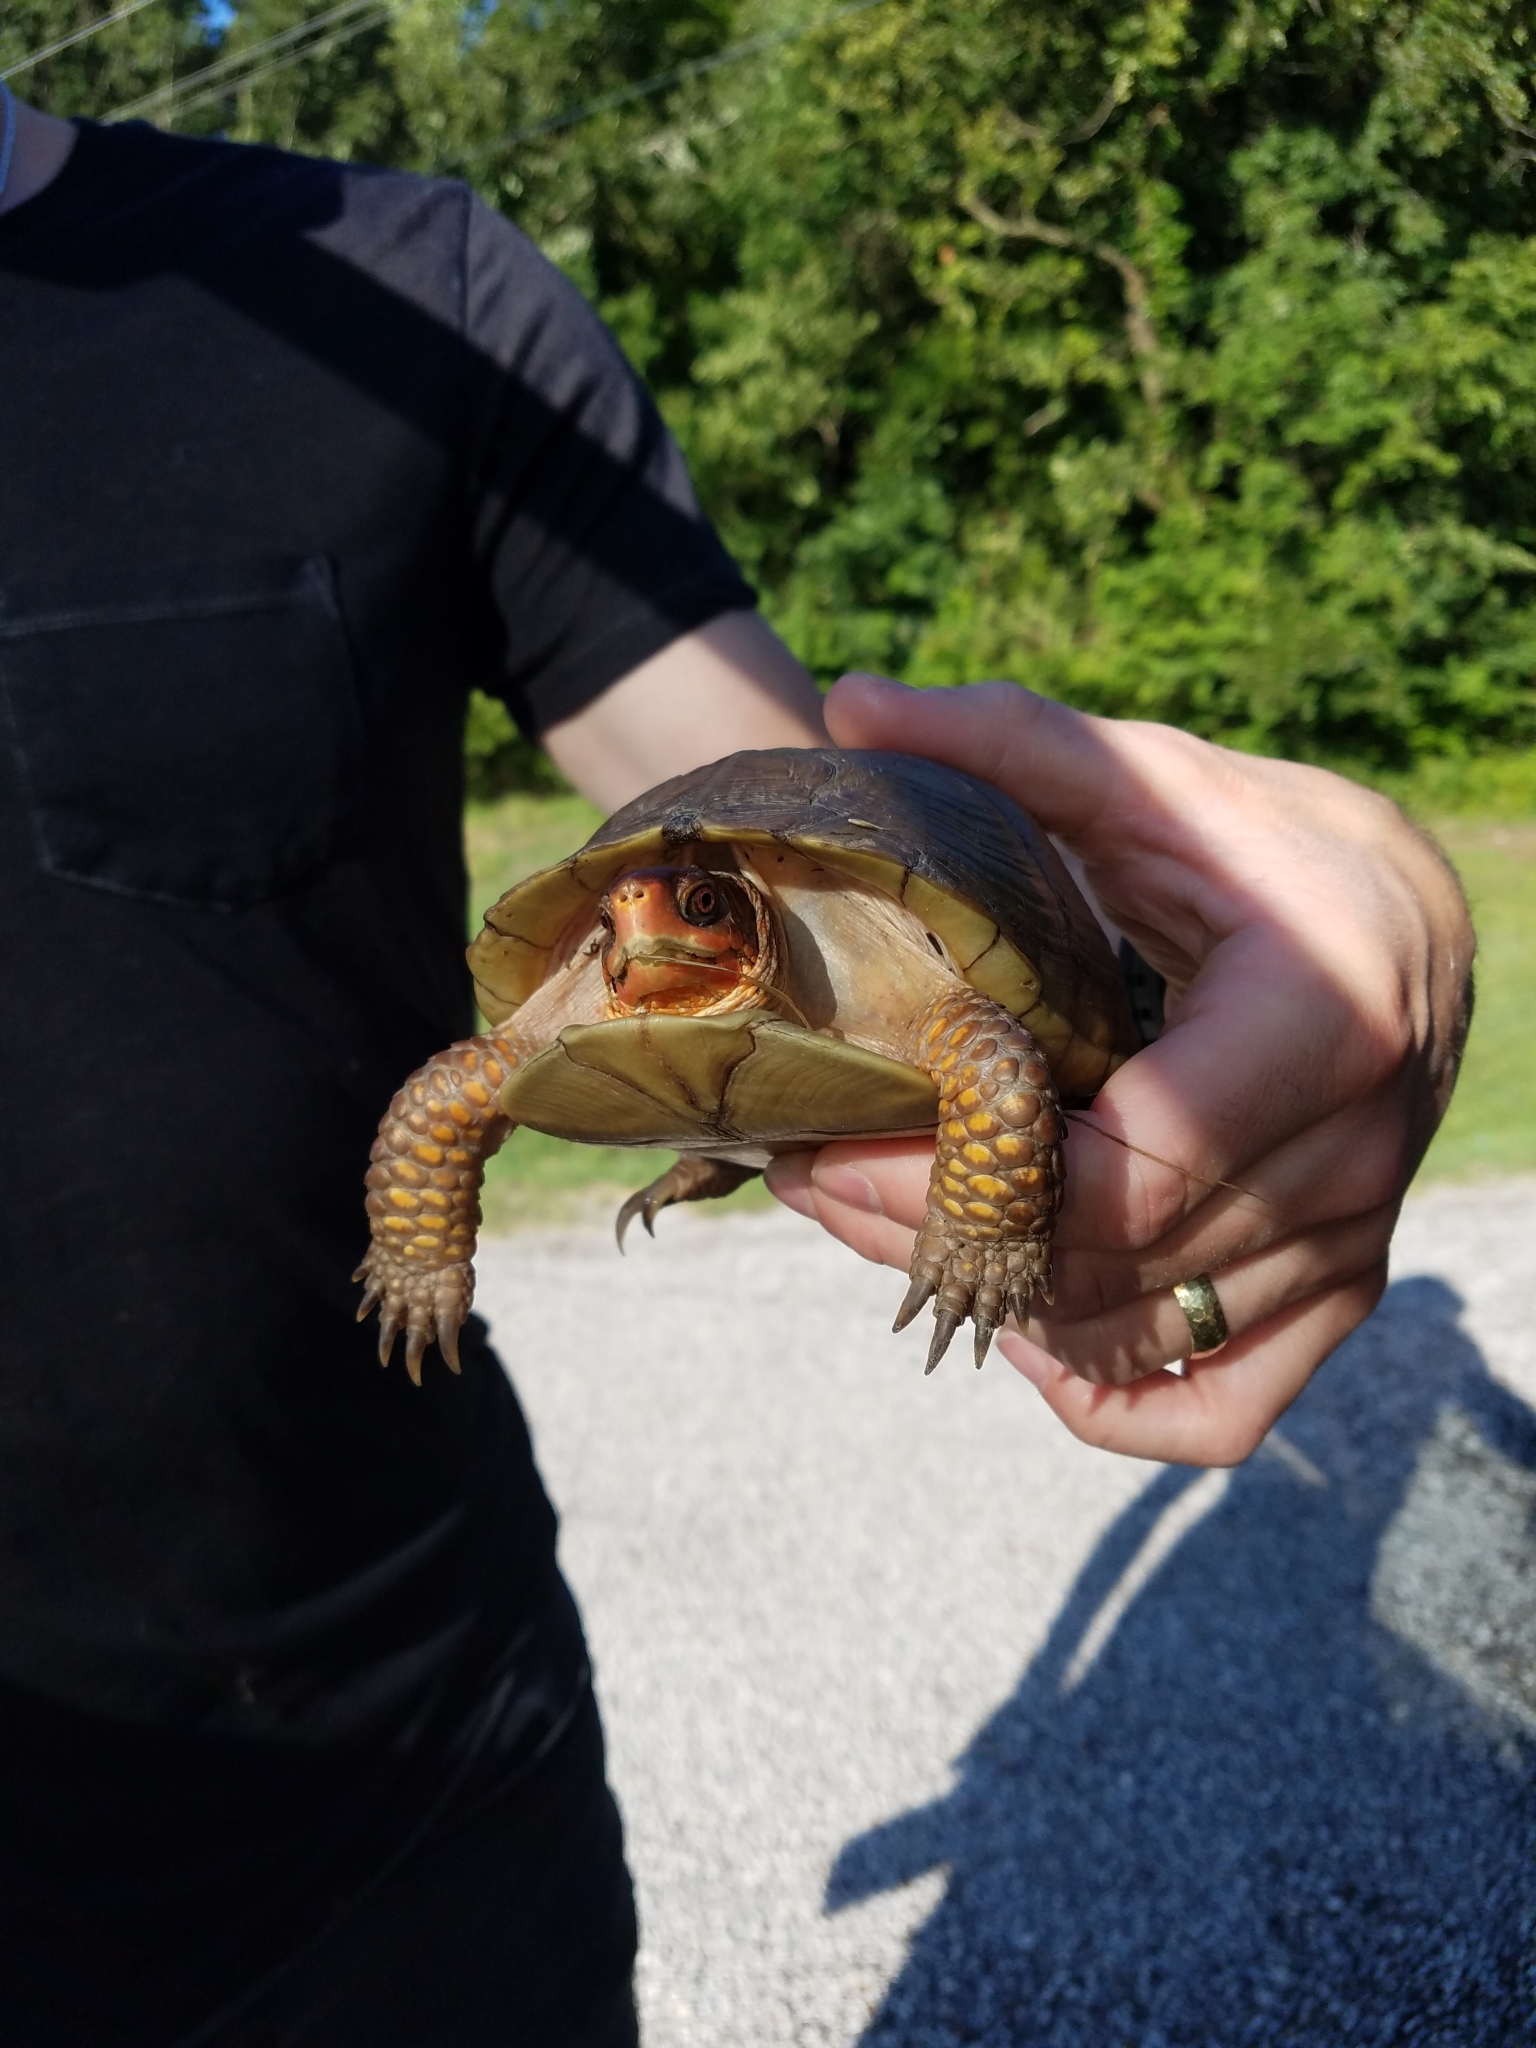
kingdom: Animalia
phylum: Chordata
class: Testudines
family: Emydidae
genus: Terrapene
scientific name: Terrapene carolina
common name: Common box turtle
